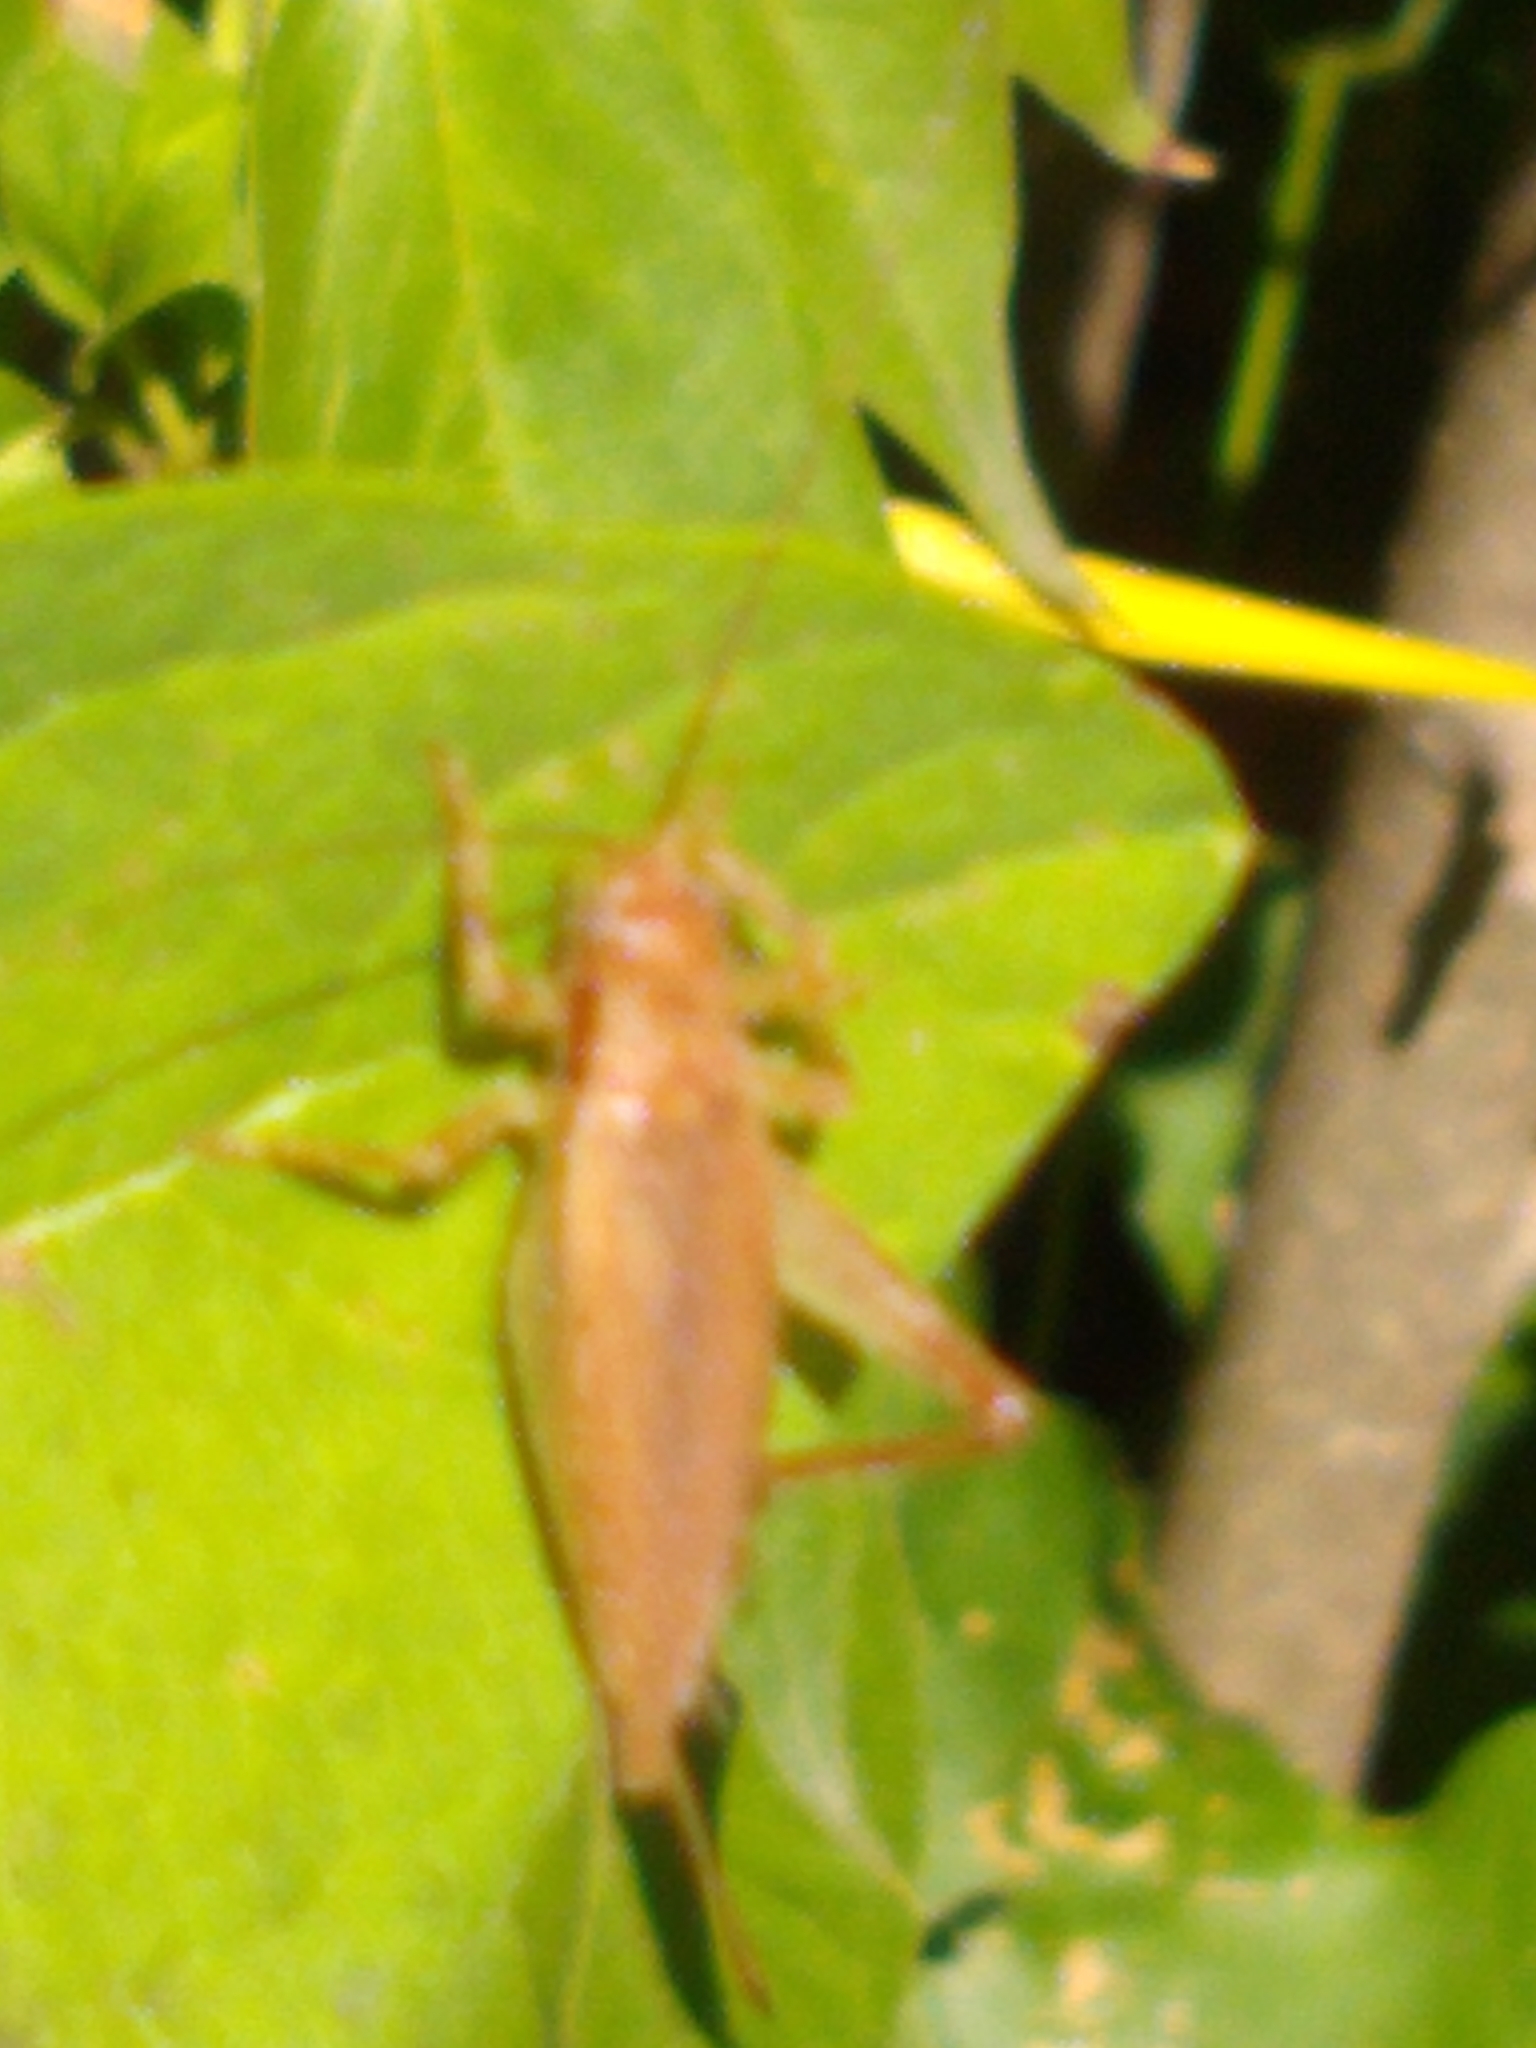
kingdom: Animalia
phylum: Arthropoda
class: Insecta
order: Orthoptera
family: Gryllidae
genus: Hapithus
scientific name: Hapithus saltator
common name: Jumping bush cricket
